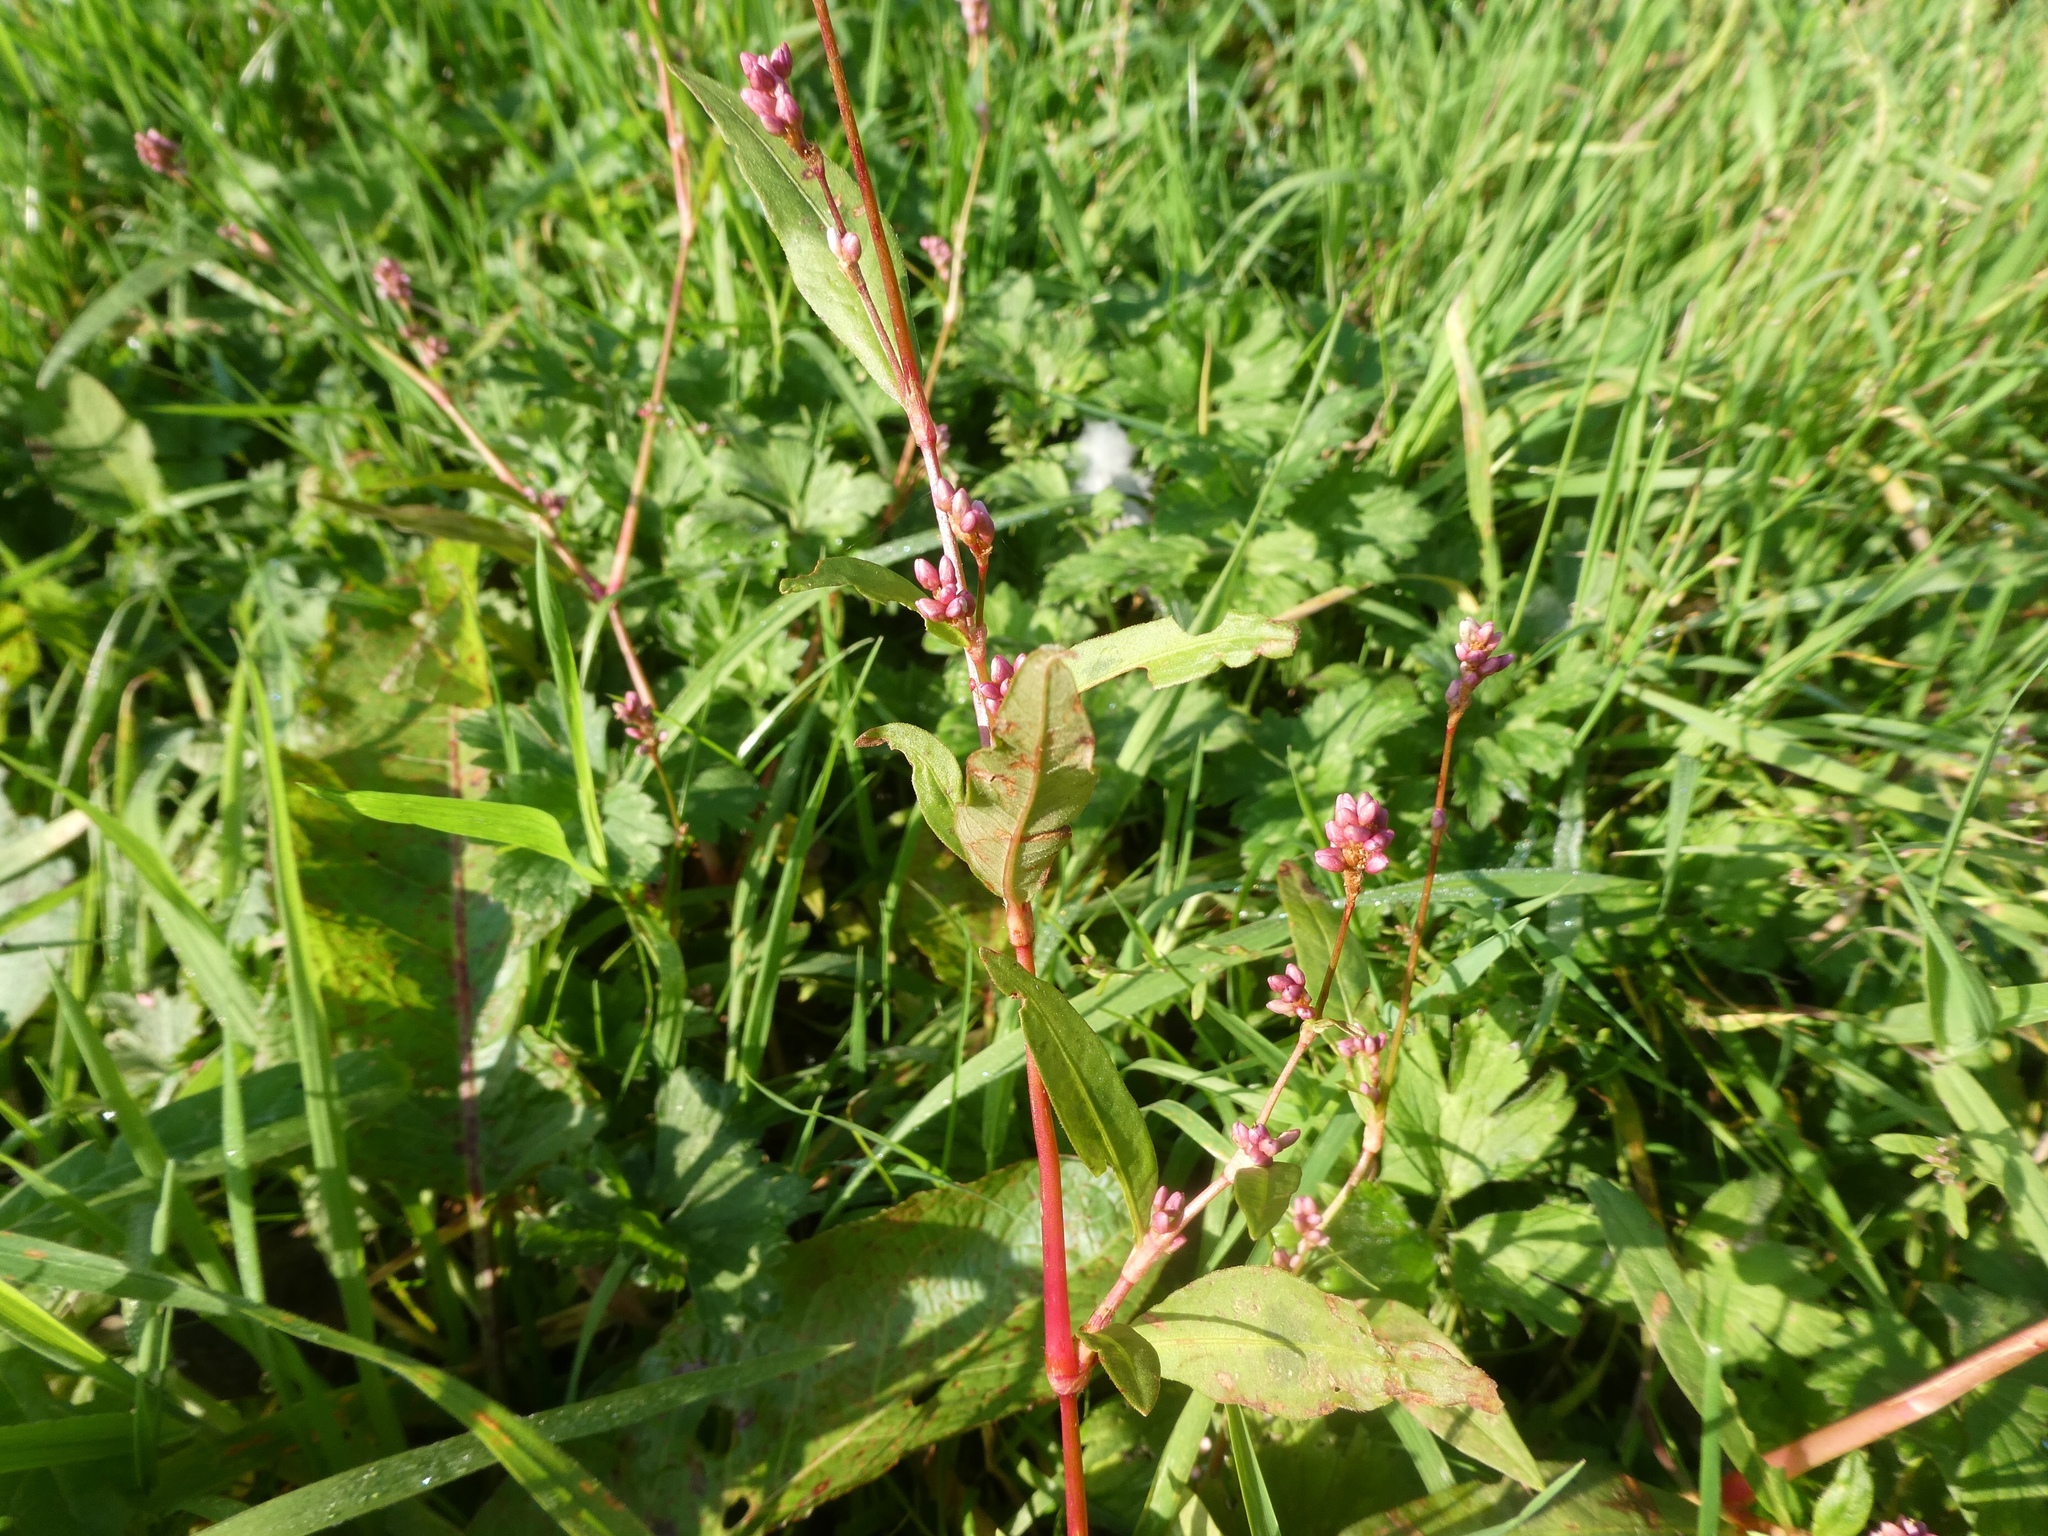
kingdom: Plantae
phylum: Tracheophyta
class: Magnoliopsida
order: Caryophyllales
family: Polygonaceae
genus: Persicaria
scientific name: Persicaria maculosa
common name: Redshank
